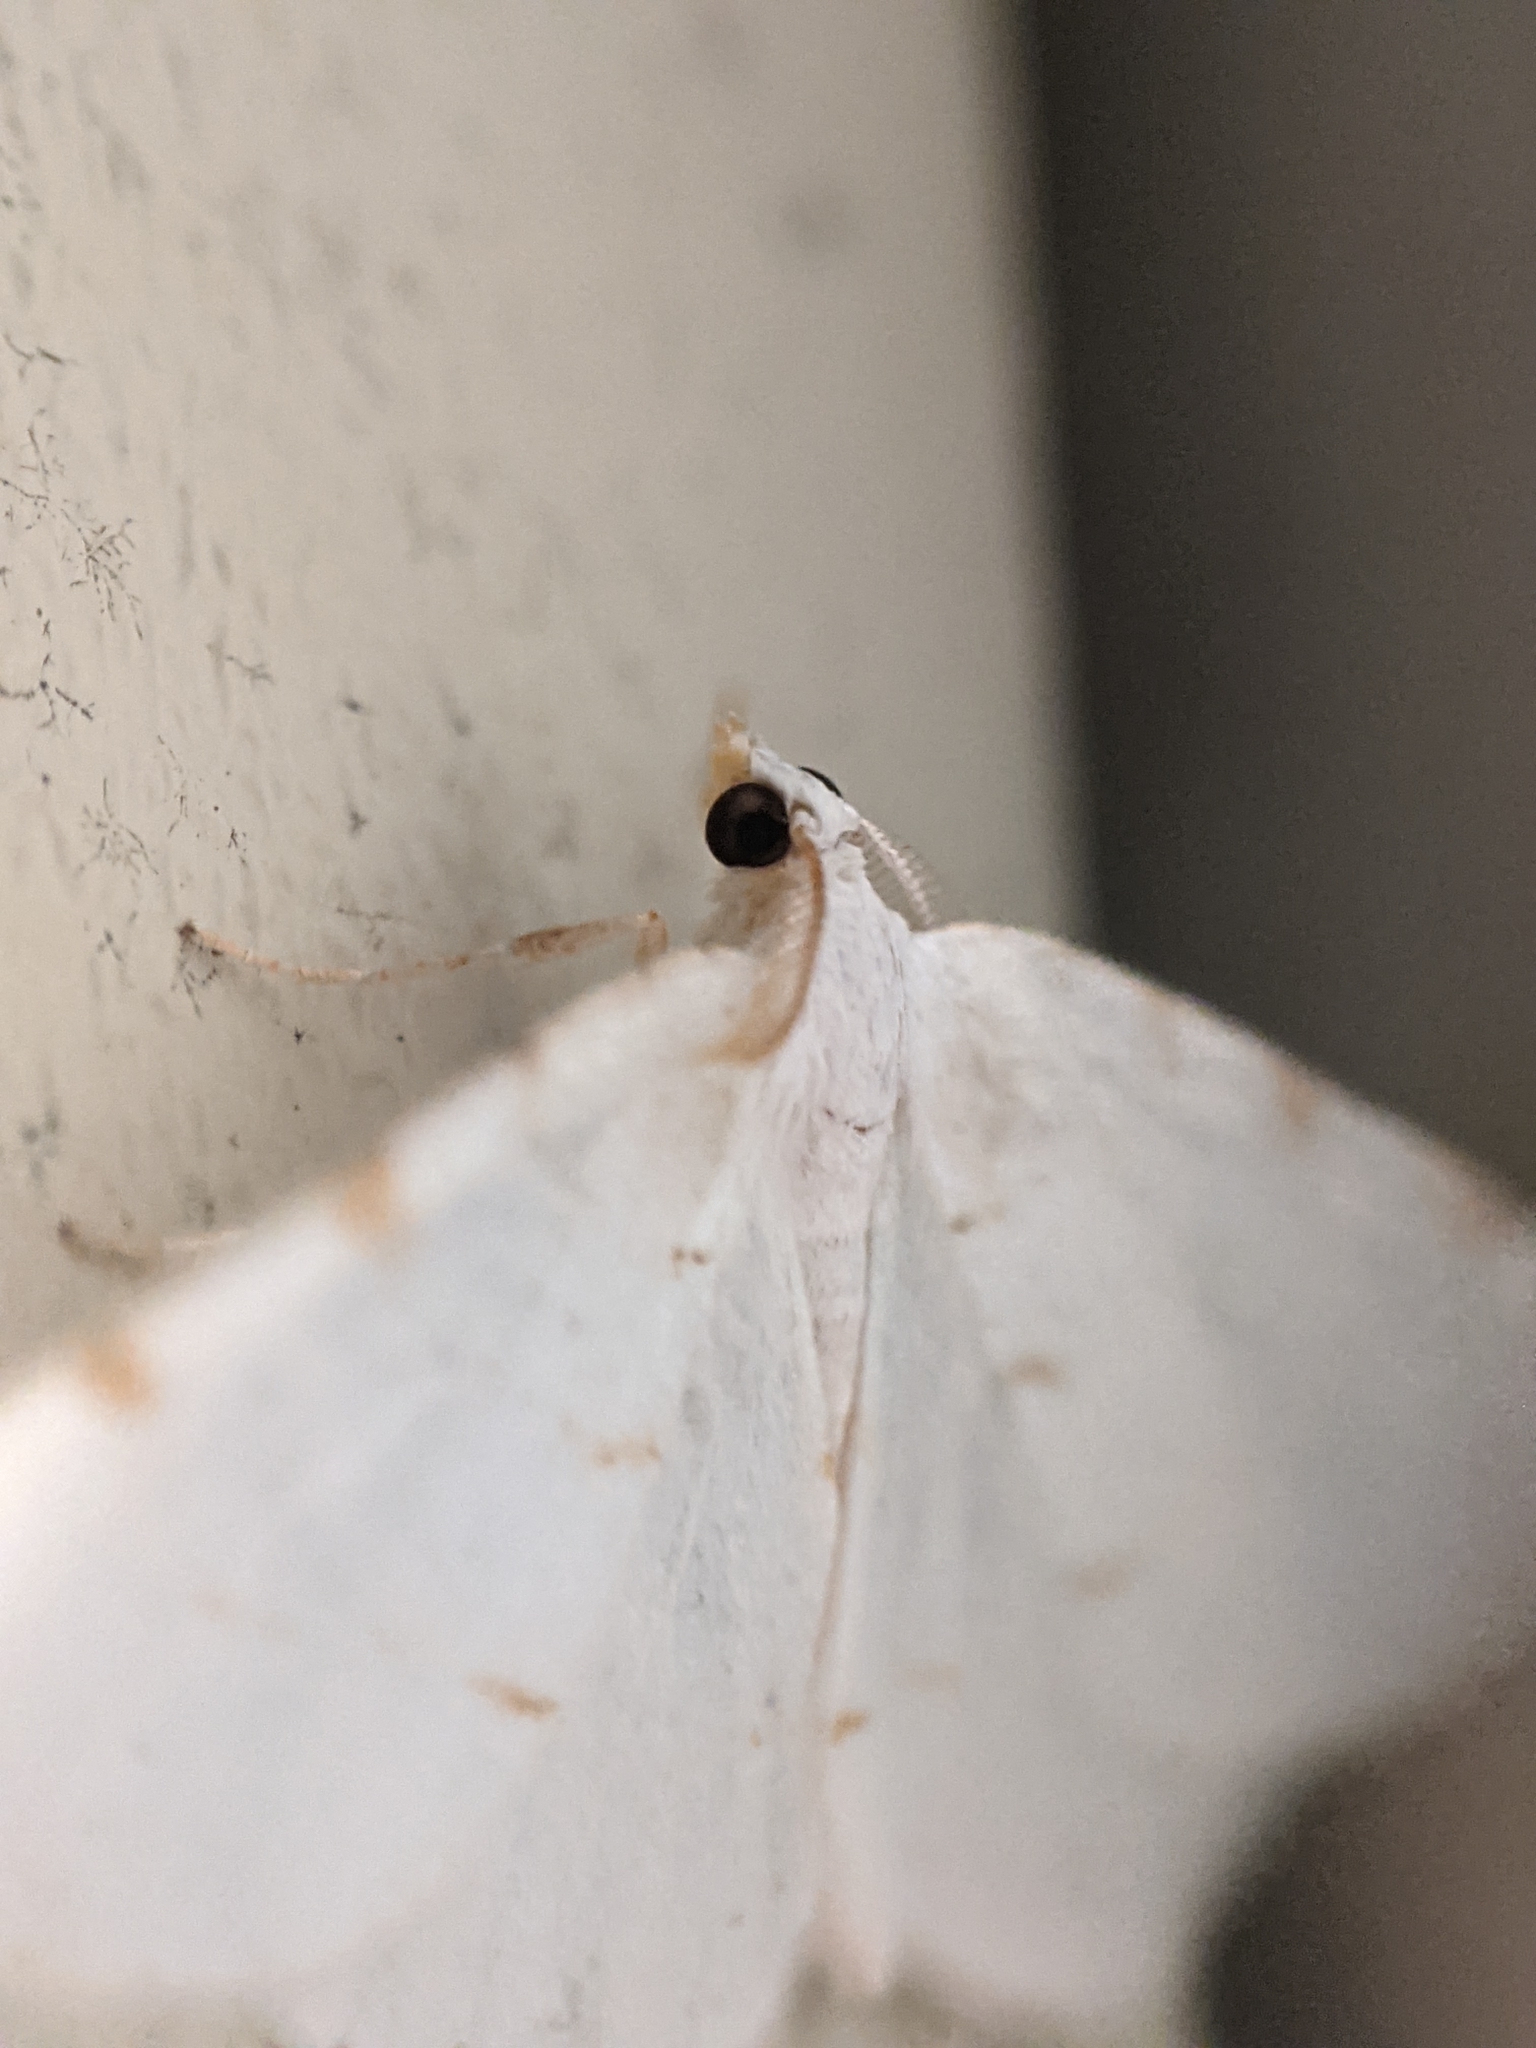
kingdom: Animalia
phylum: Arthropoda
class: Insecta
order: Lepidoptera
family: Geometridae
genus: Macaria
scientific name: Macaria pustularia
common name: Lesser maple spanworm moth
